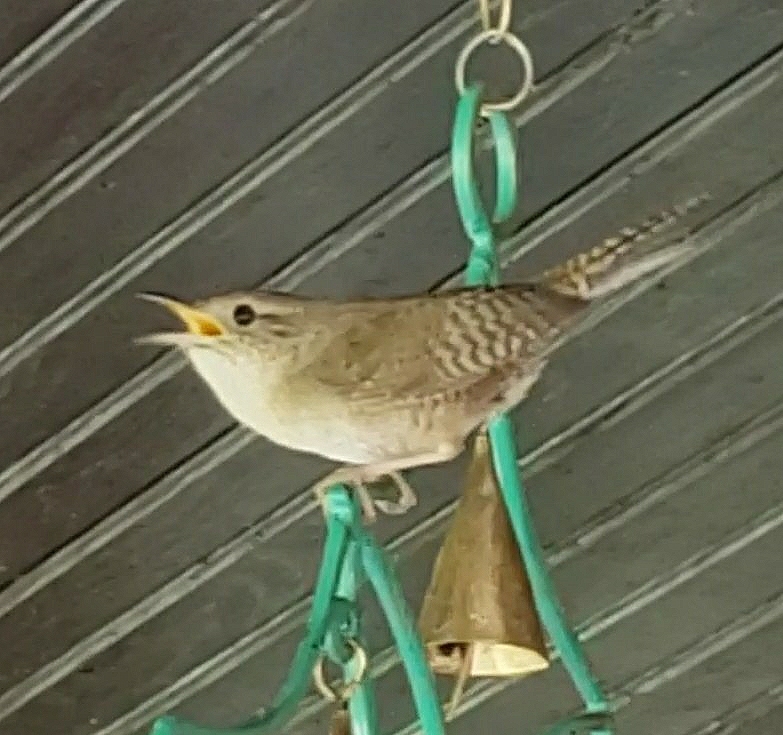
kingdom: Animalia
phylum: Chordata
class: Aves
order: Passeriformes
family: Troglodytidae
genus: Troglodytes
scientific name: Troglodytes aedon
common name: House wren
